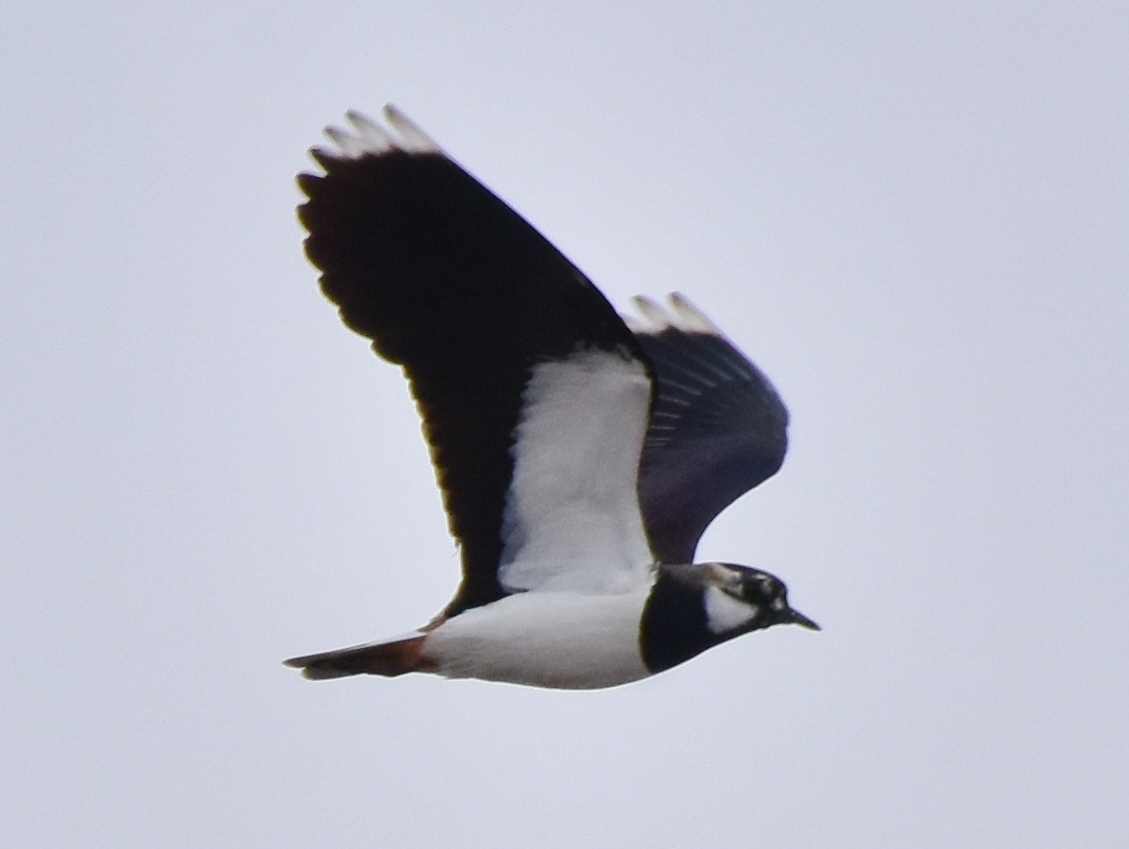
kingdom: Animalia
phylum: Chordata
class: Aves
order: Charadriiformes
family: Charadriidae
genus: Vanellus
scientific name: Vanellus vanellus
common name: Northern lapwing
